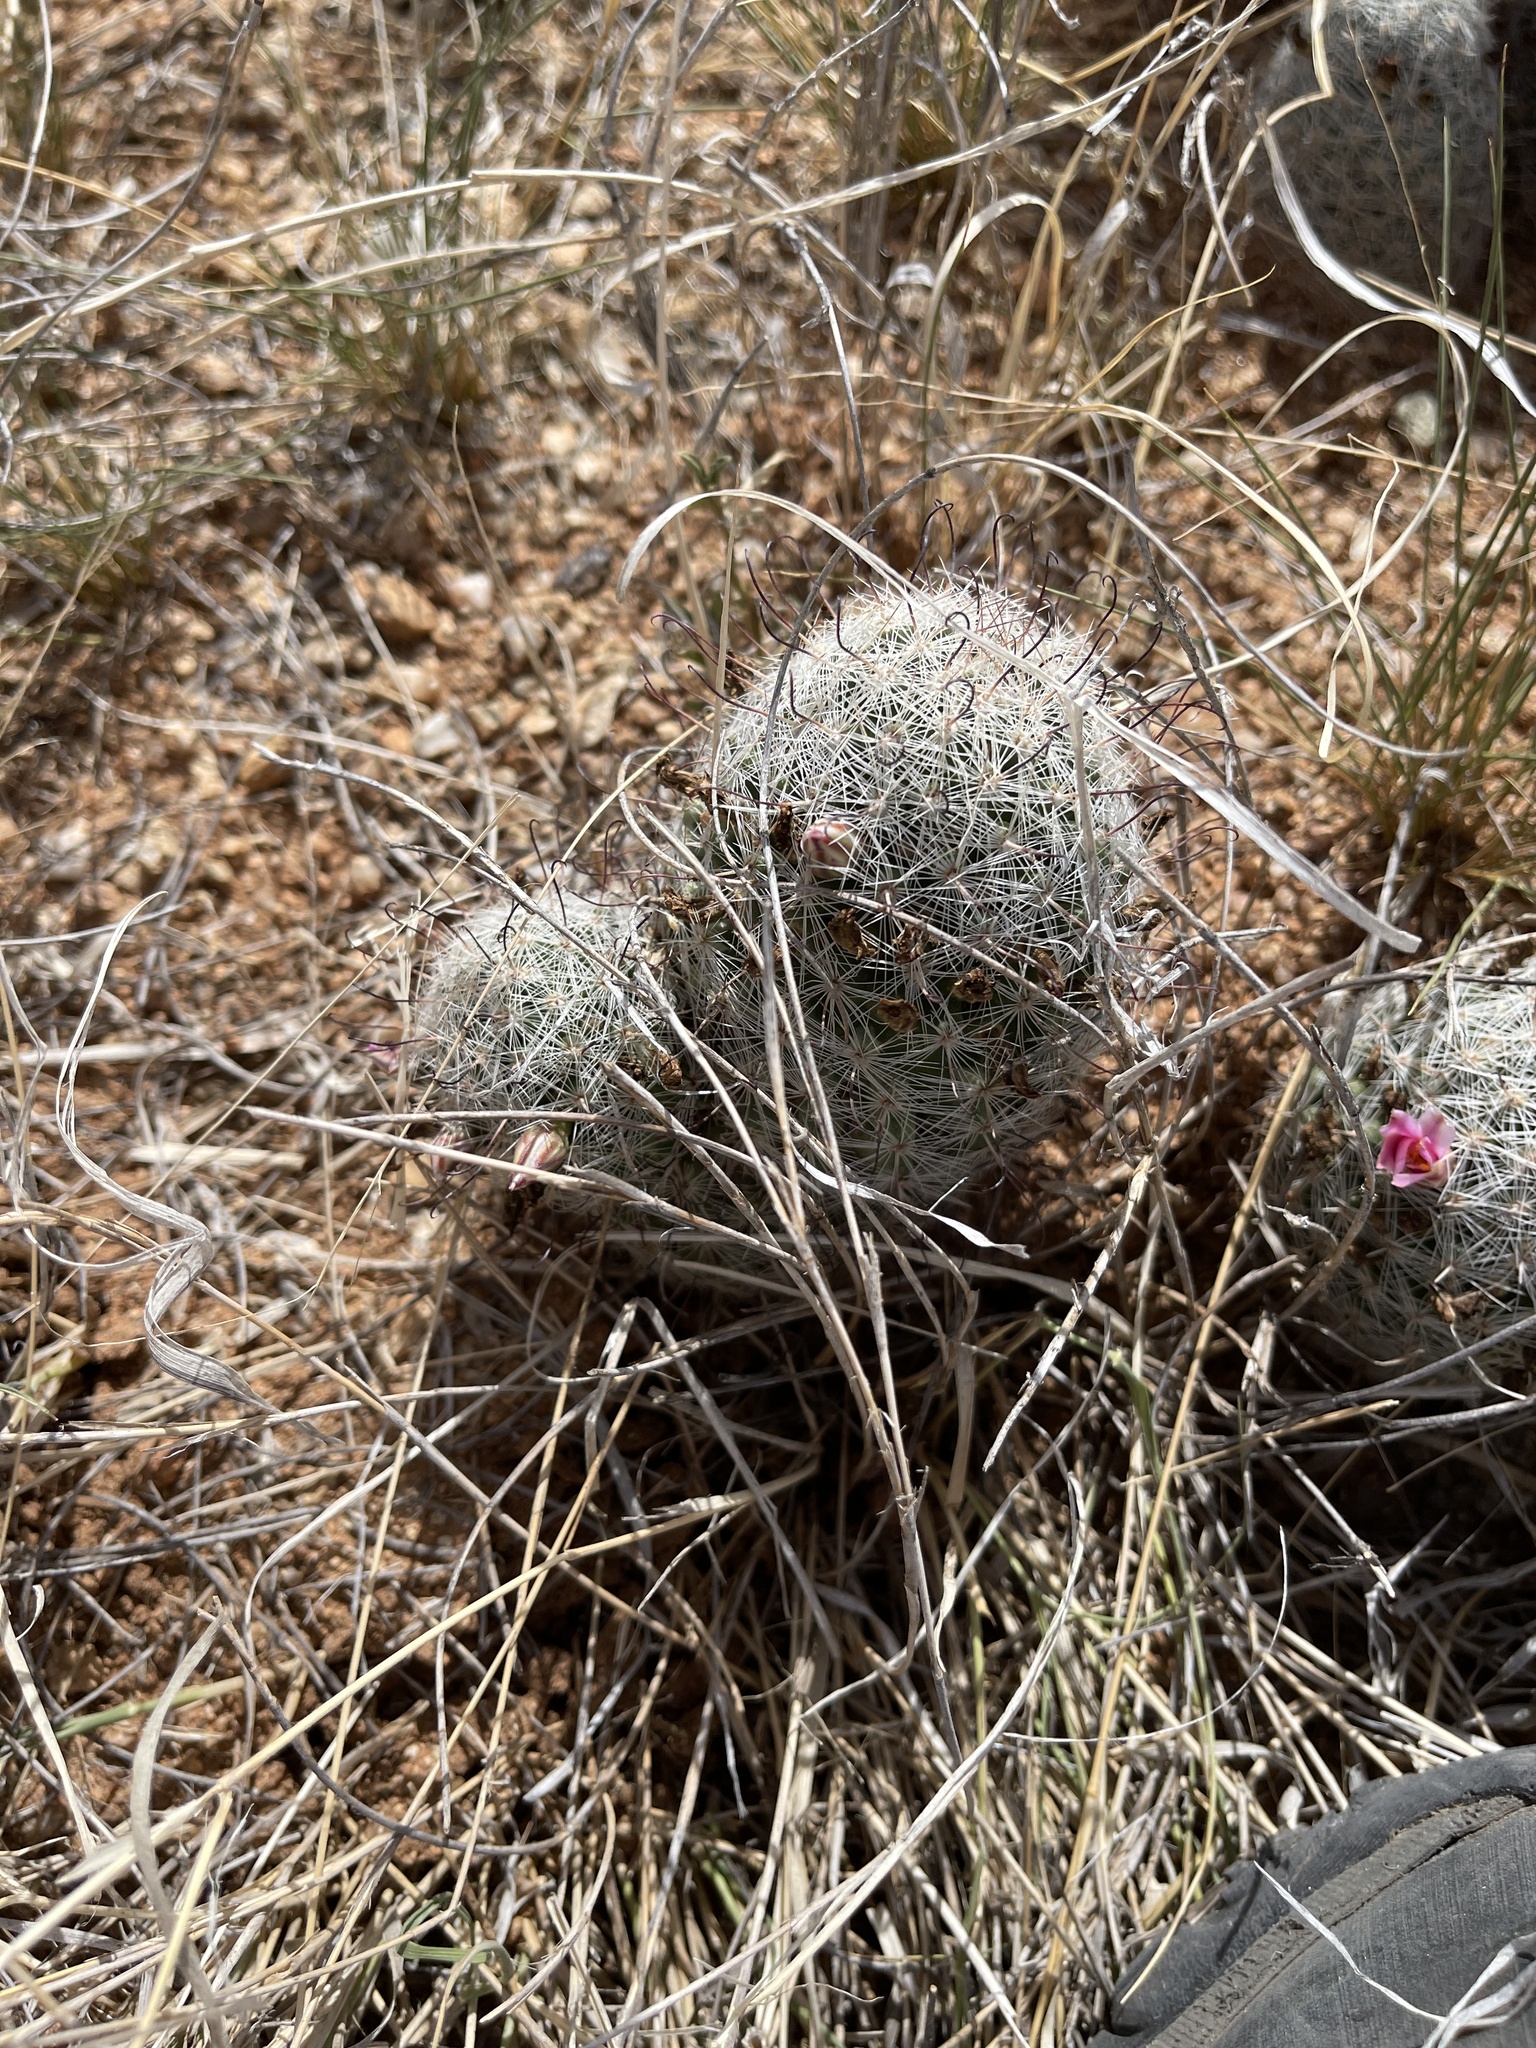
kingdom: Plantae
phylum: Tracheophyta
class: Magnoliopsida
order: Caryophyllales
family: Cactaceae
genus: Cochemiea
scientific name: Cochemiea grahamii
